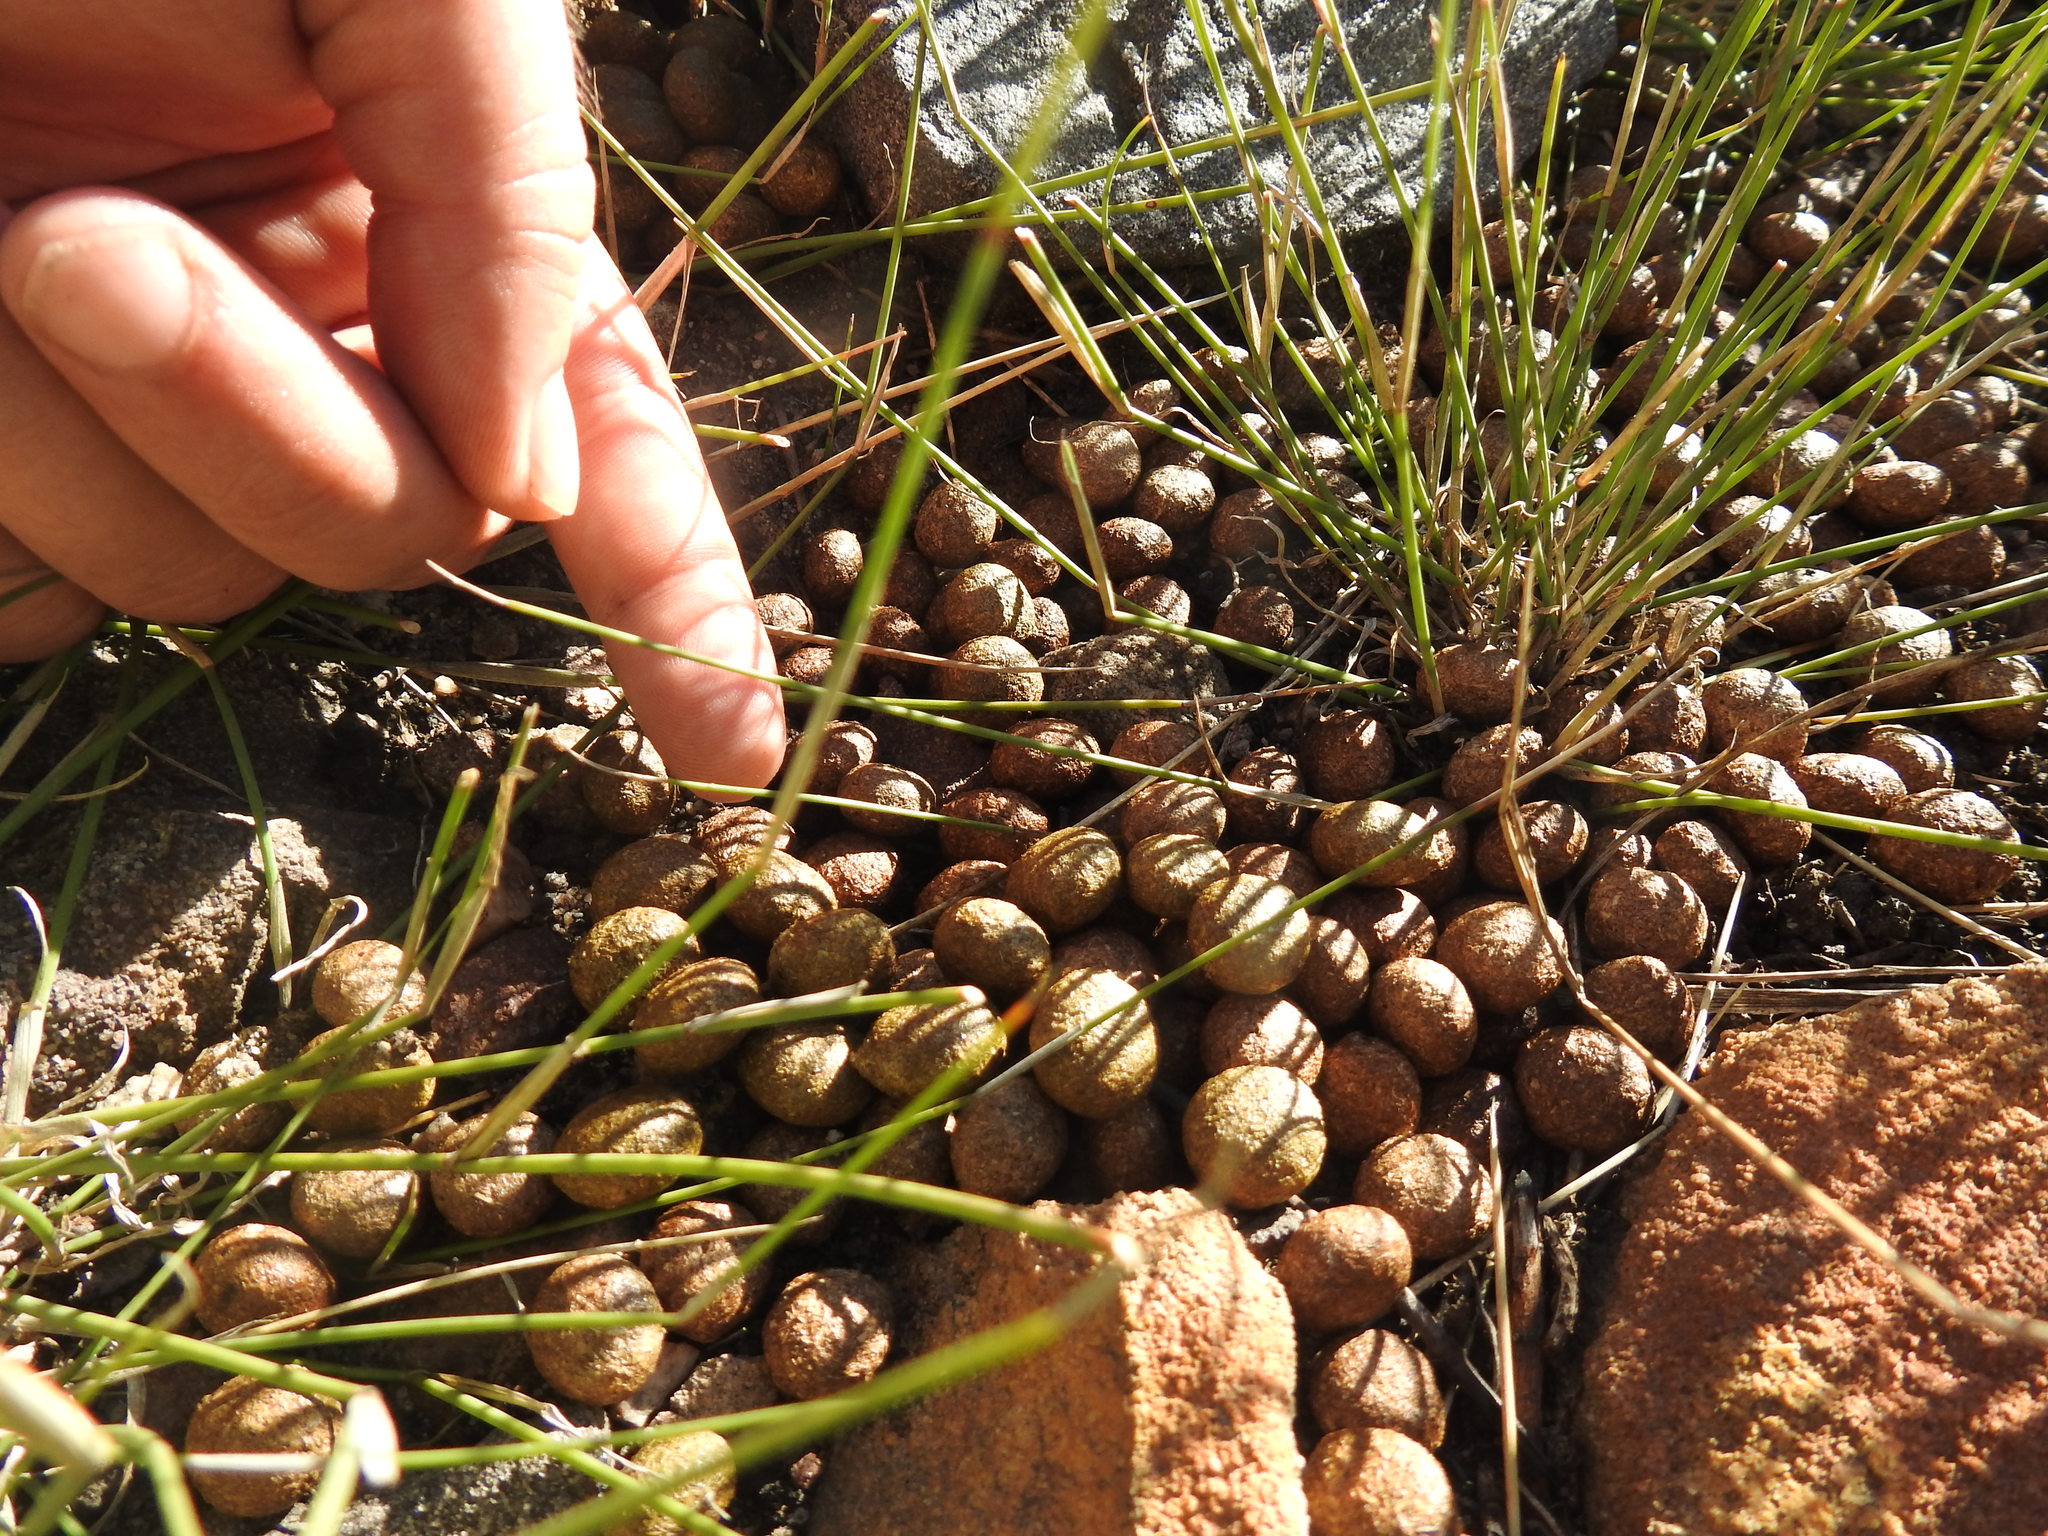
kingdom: Animalia
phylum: Chordata
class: Mammalia
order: Lagomorpha
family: Leporidae
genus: Pronolagus
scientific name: Pronolagus saundersiae
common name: Hewitt's red rock hare
